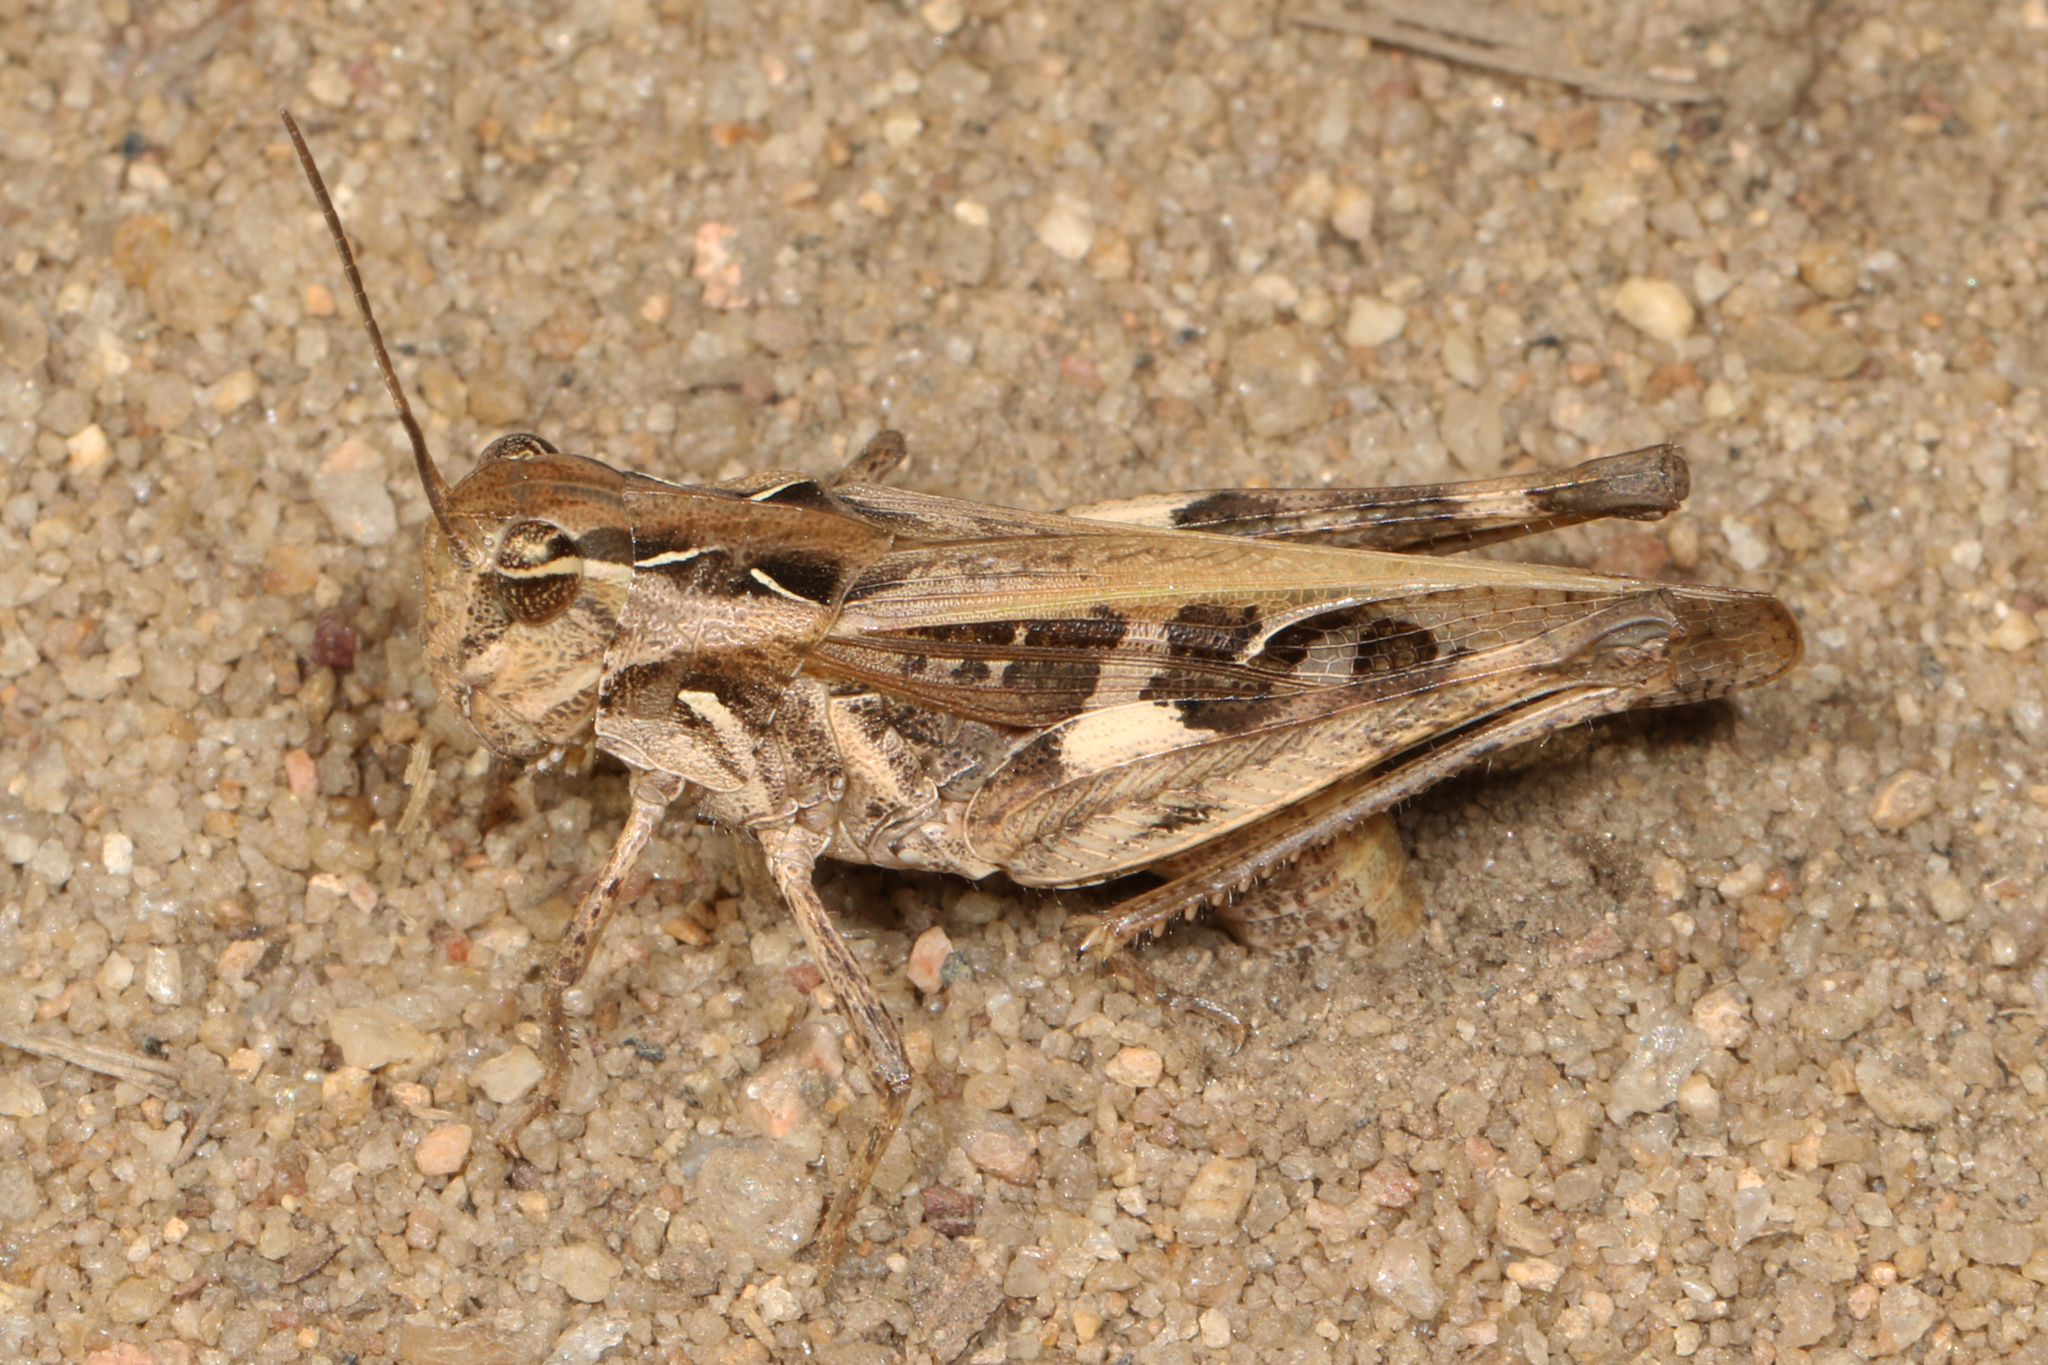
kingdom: Animalia
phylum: Arthropoda
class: Insecta
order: Orthoptera
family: Acrididae
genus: Oedaleus
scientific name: Oedaleus carvalhoi
